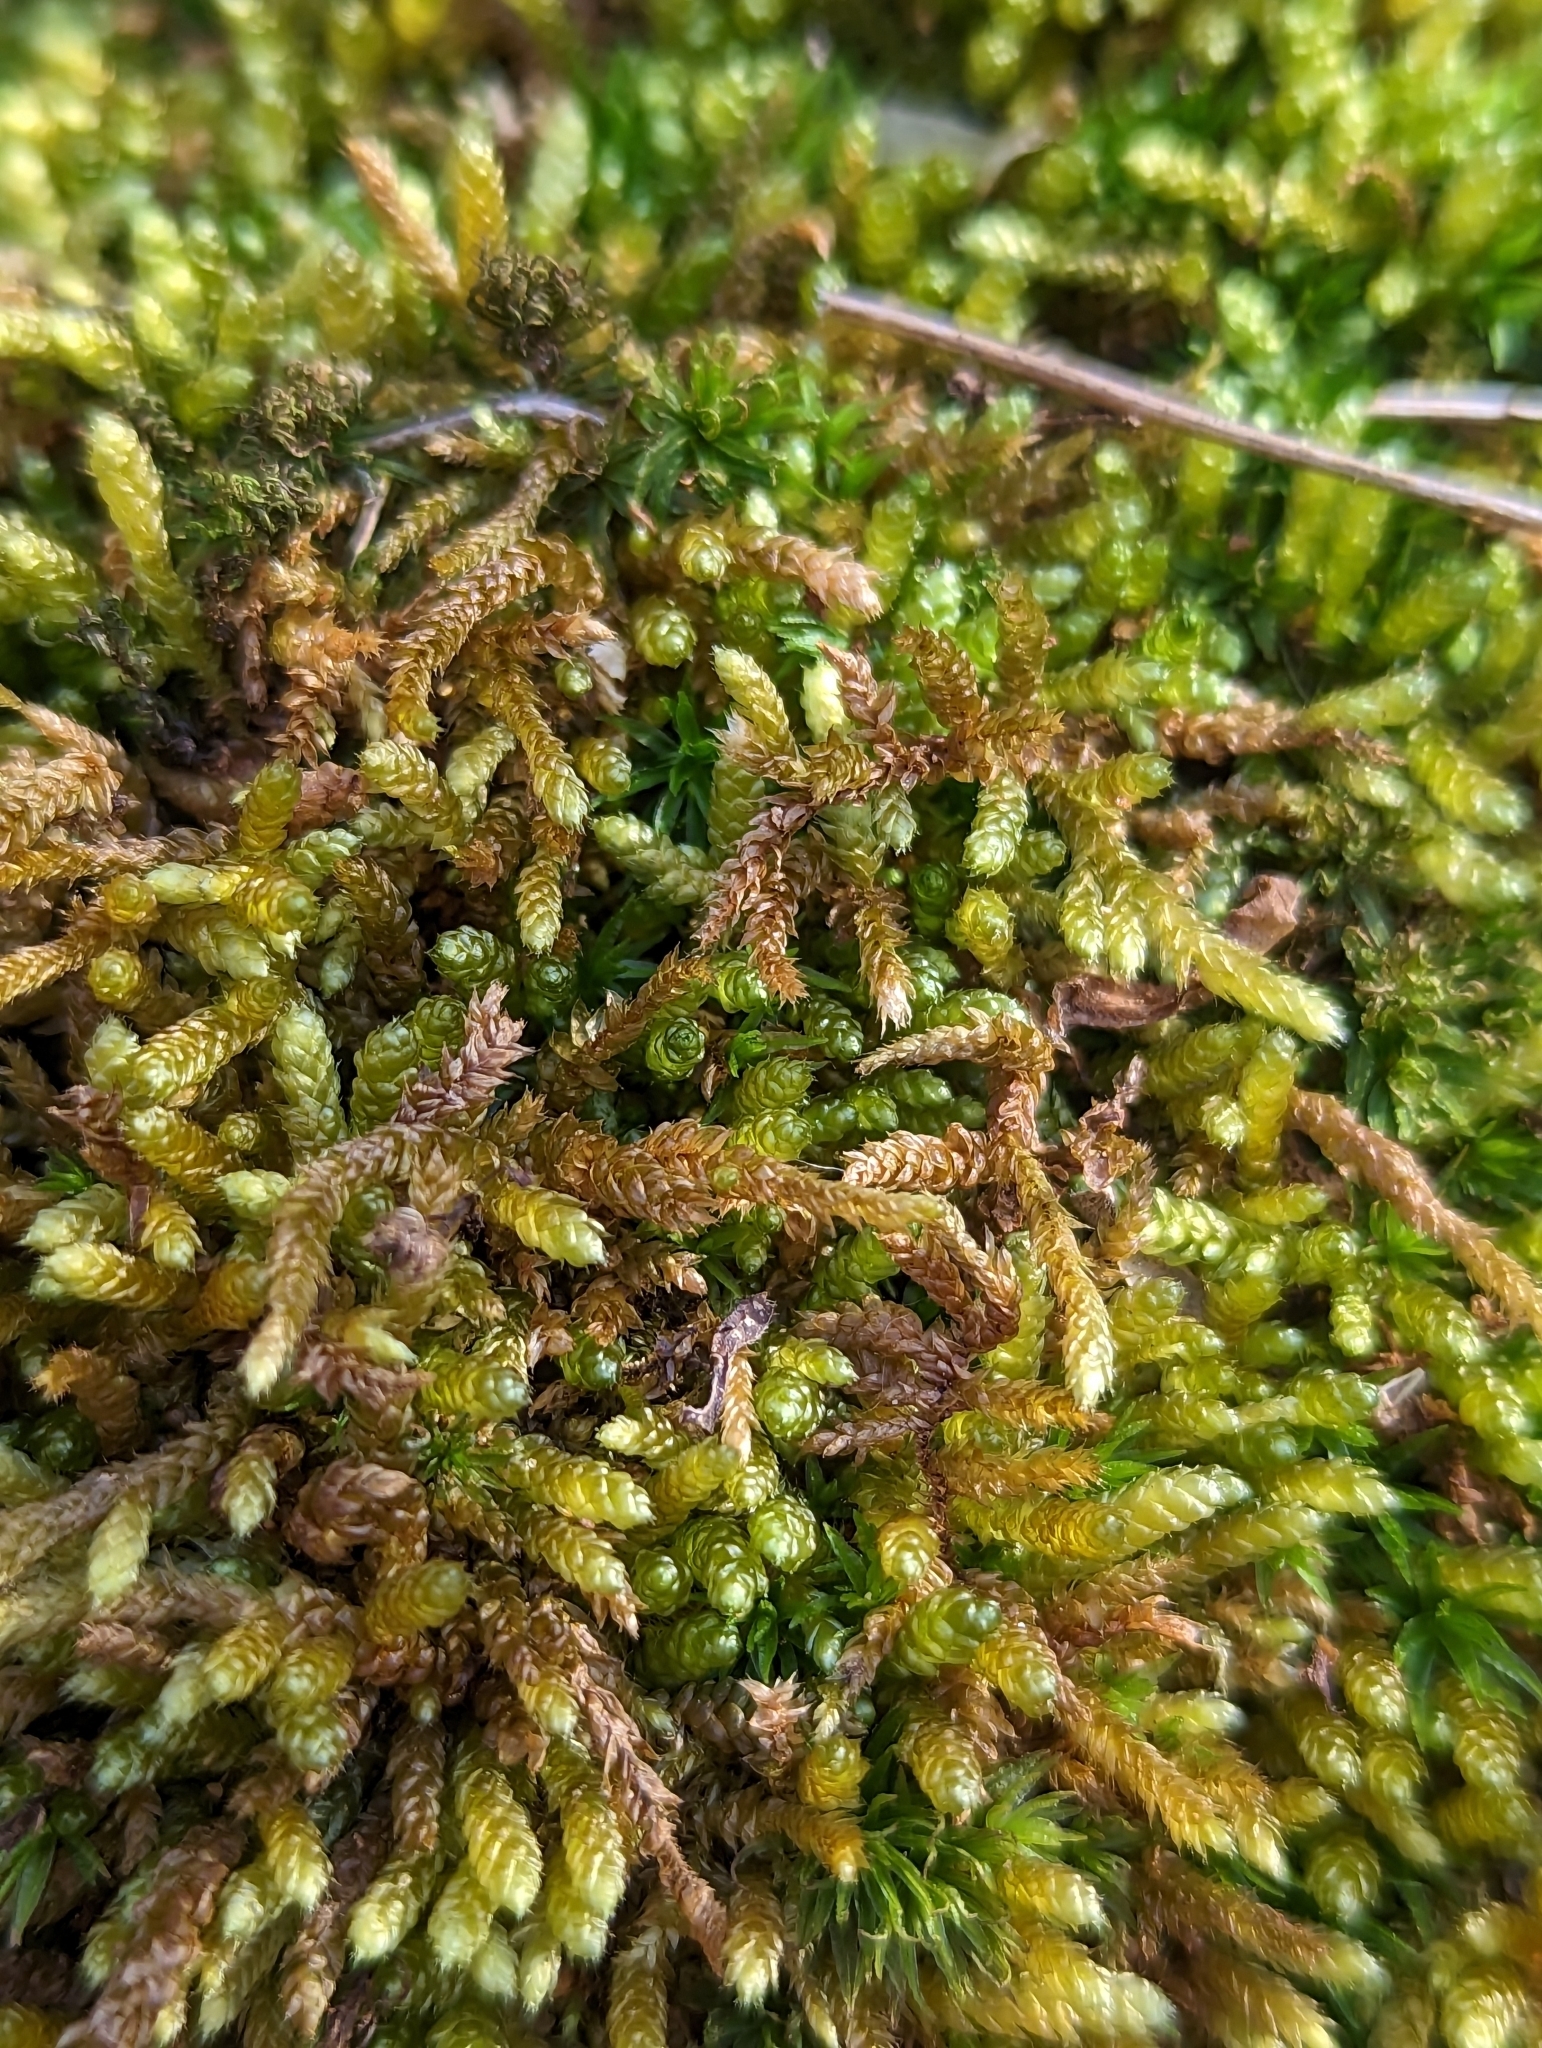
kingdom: Plantae
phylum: Bryophyta
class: Bryopsida
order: Hypnales
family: Brachytheciaceae
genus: Bryoandersonia
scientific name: Bryoandersonia illecebra
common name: Spoon-leaved moss
